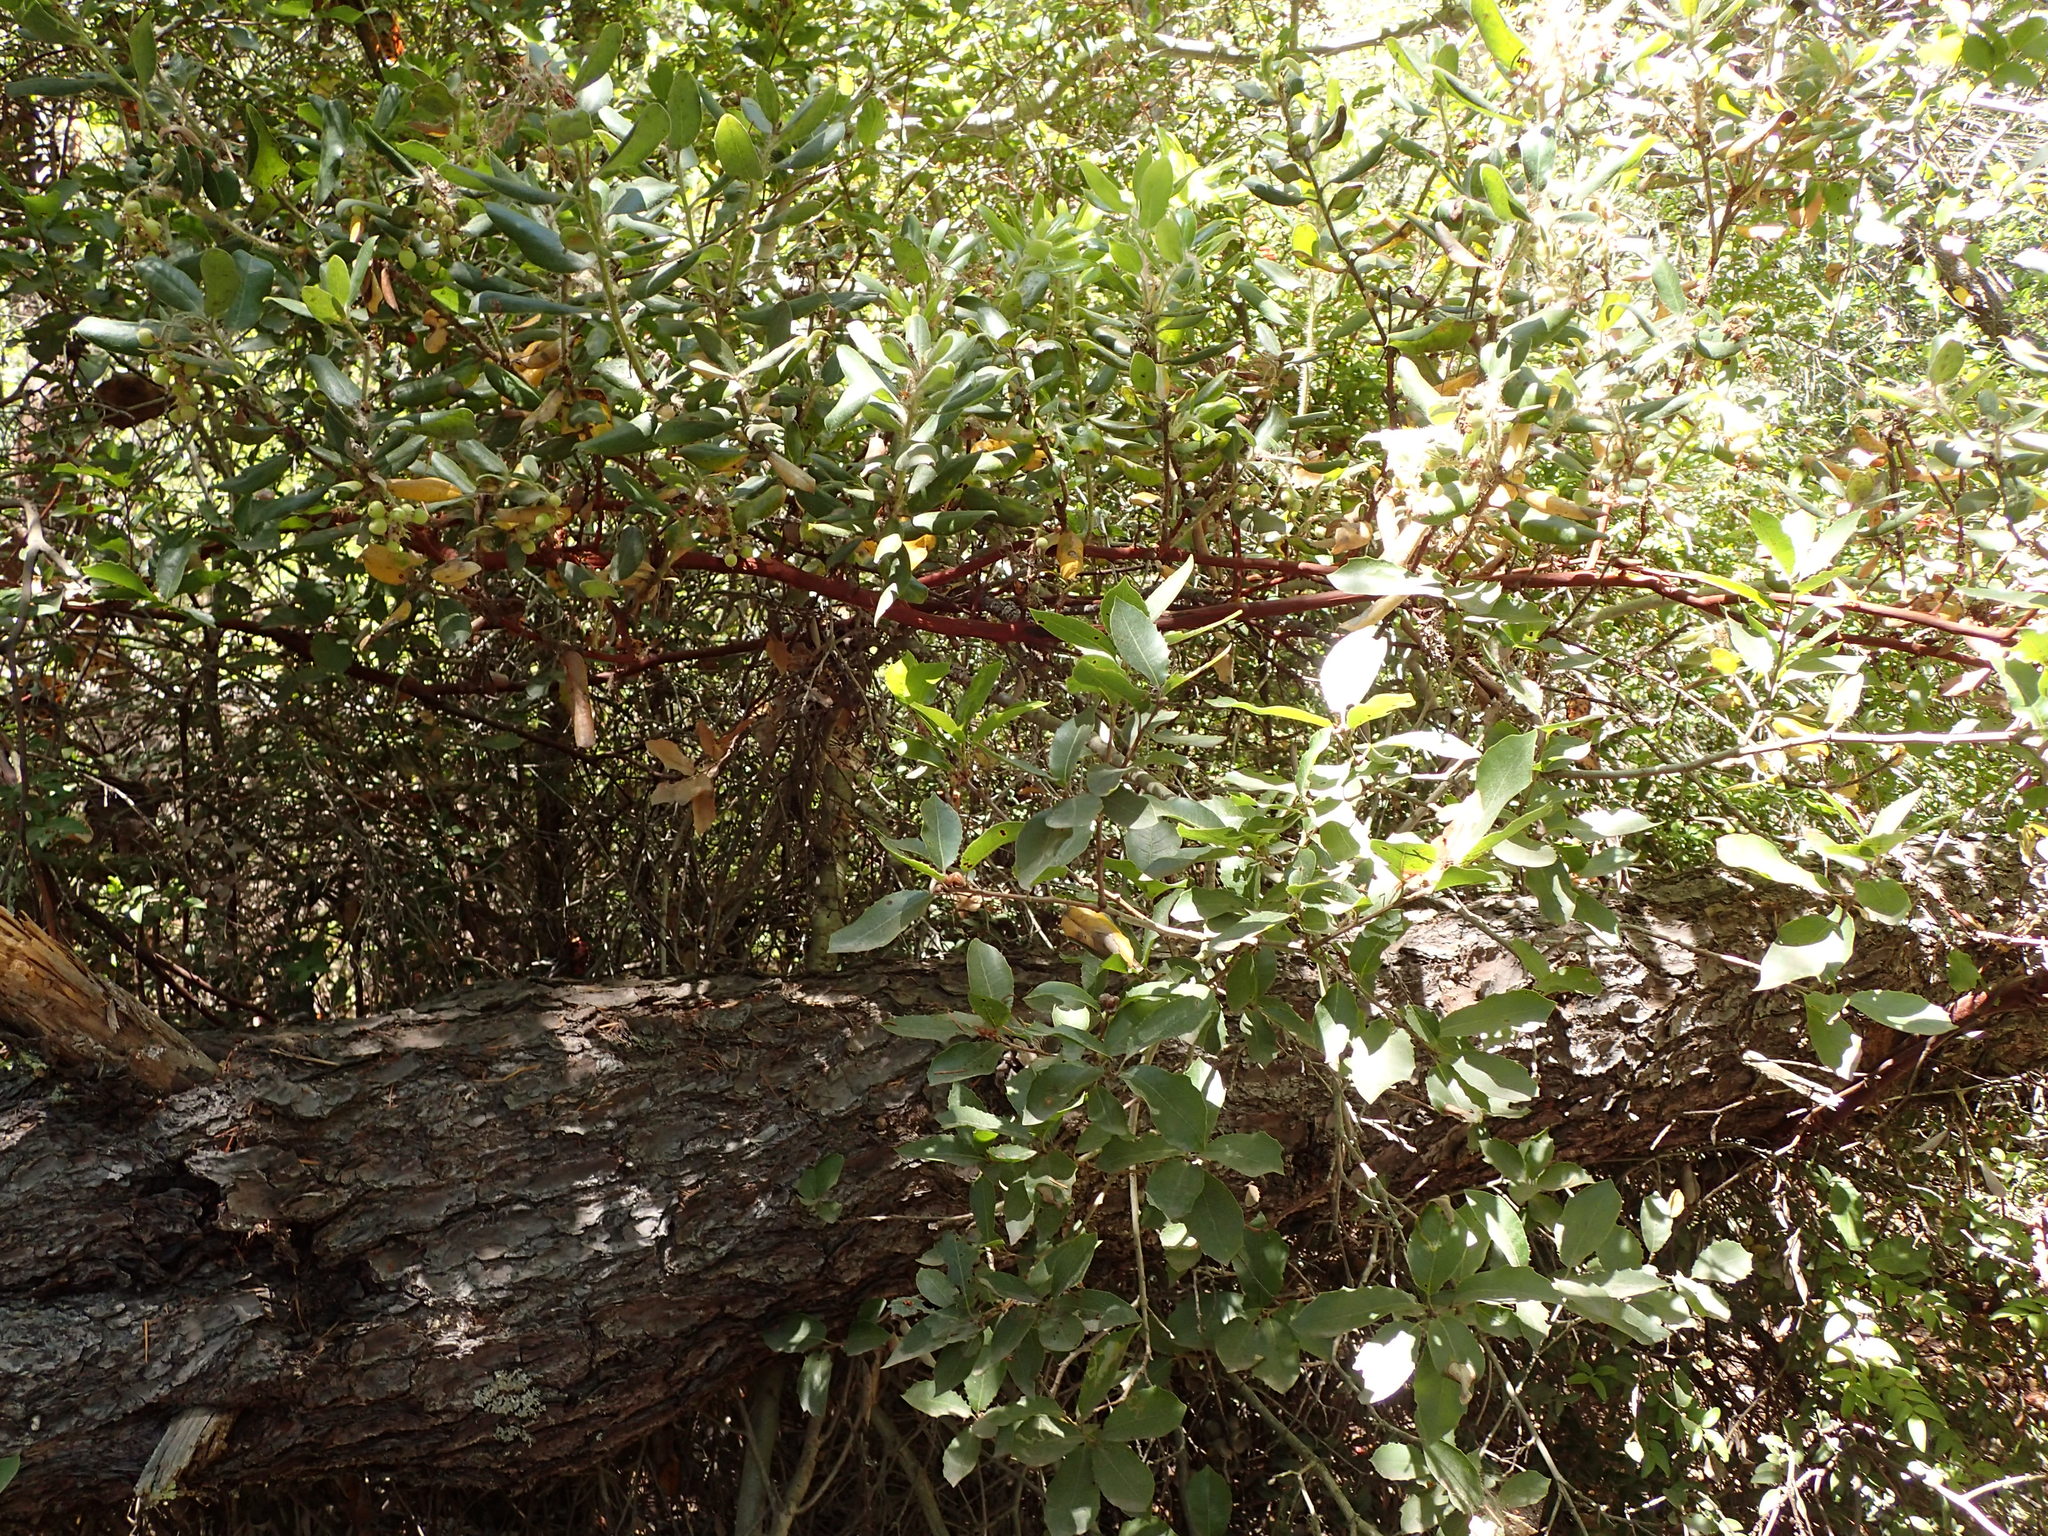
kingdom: Plantae
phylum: Tracheophyta
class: Magnoliopsida
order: Ericales
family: Ericaceae
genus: Arctostaphylos
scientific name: Arctostaphylos crustacea
